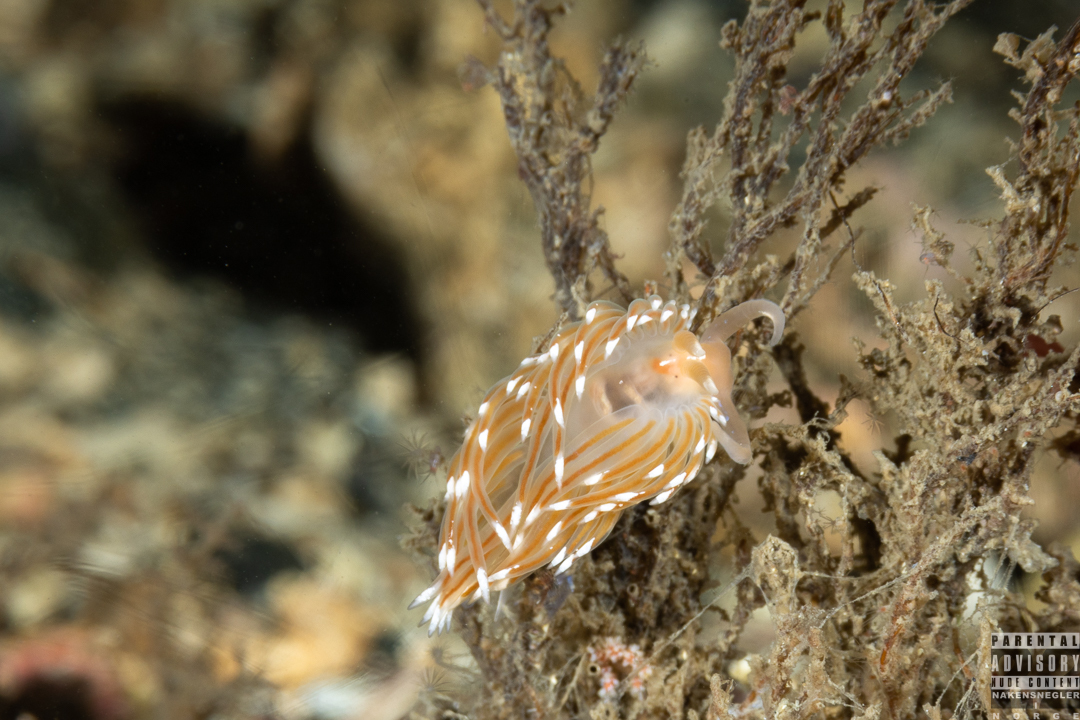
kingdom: Animalia
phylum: Mollusca
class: Gastropoda
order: Nudibranchia
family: Facelinidae
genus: Facelina
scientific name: Facelina bostoniensis
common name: Boston facelina
